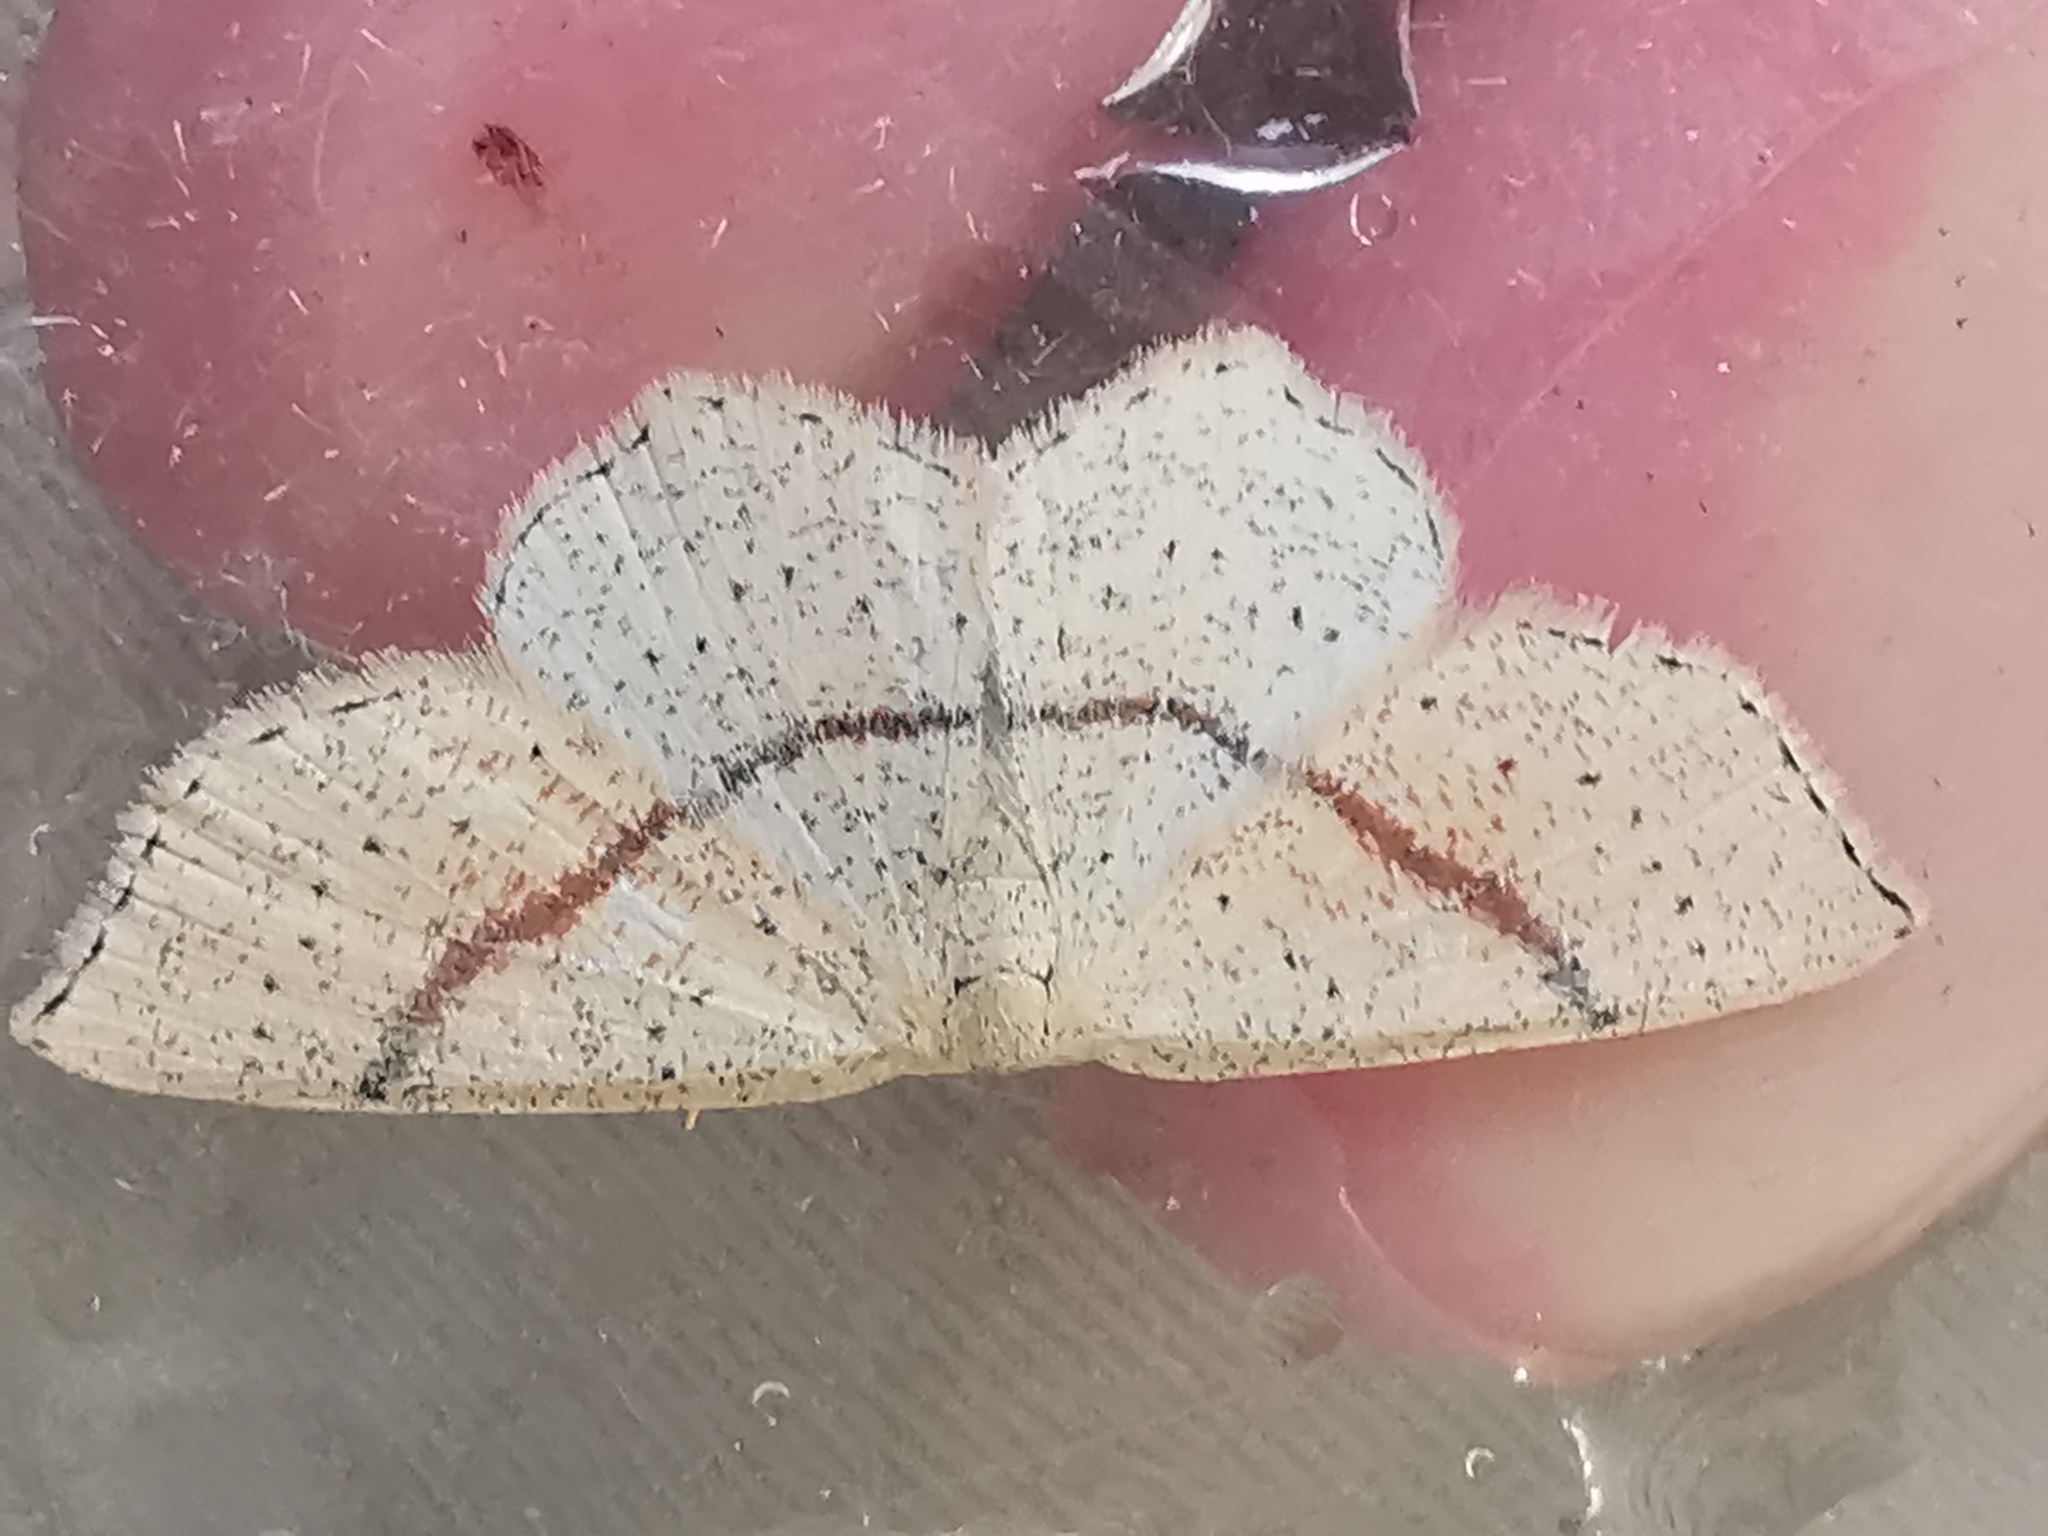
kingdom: Animalia
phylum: Arthropoda
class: Insecta
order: Lepidoptera
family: Geometridae
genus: Cyclophora
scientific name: Cyclophora punctaria
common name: Maiden's blush
